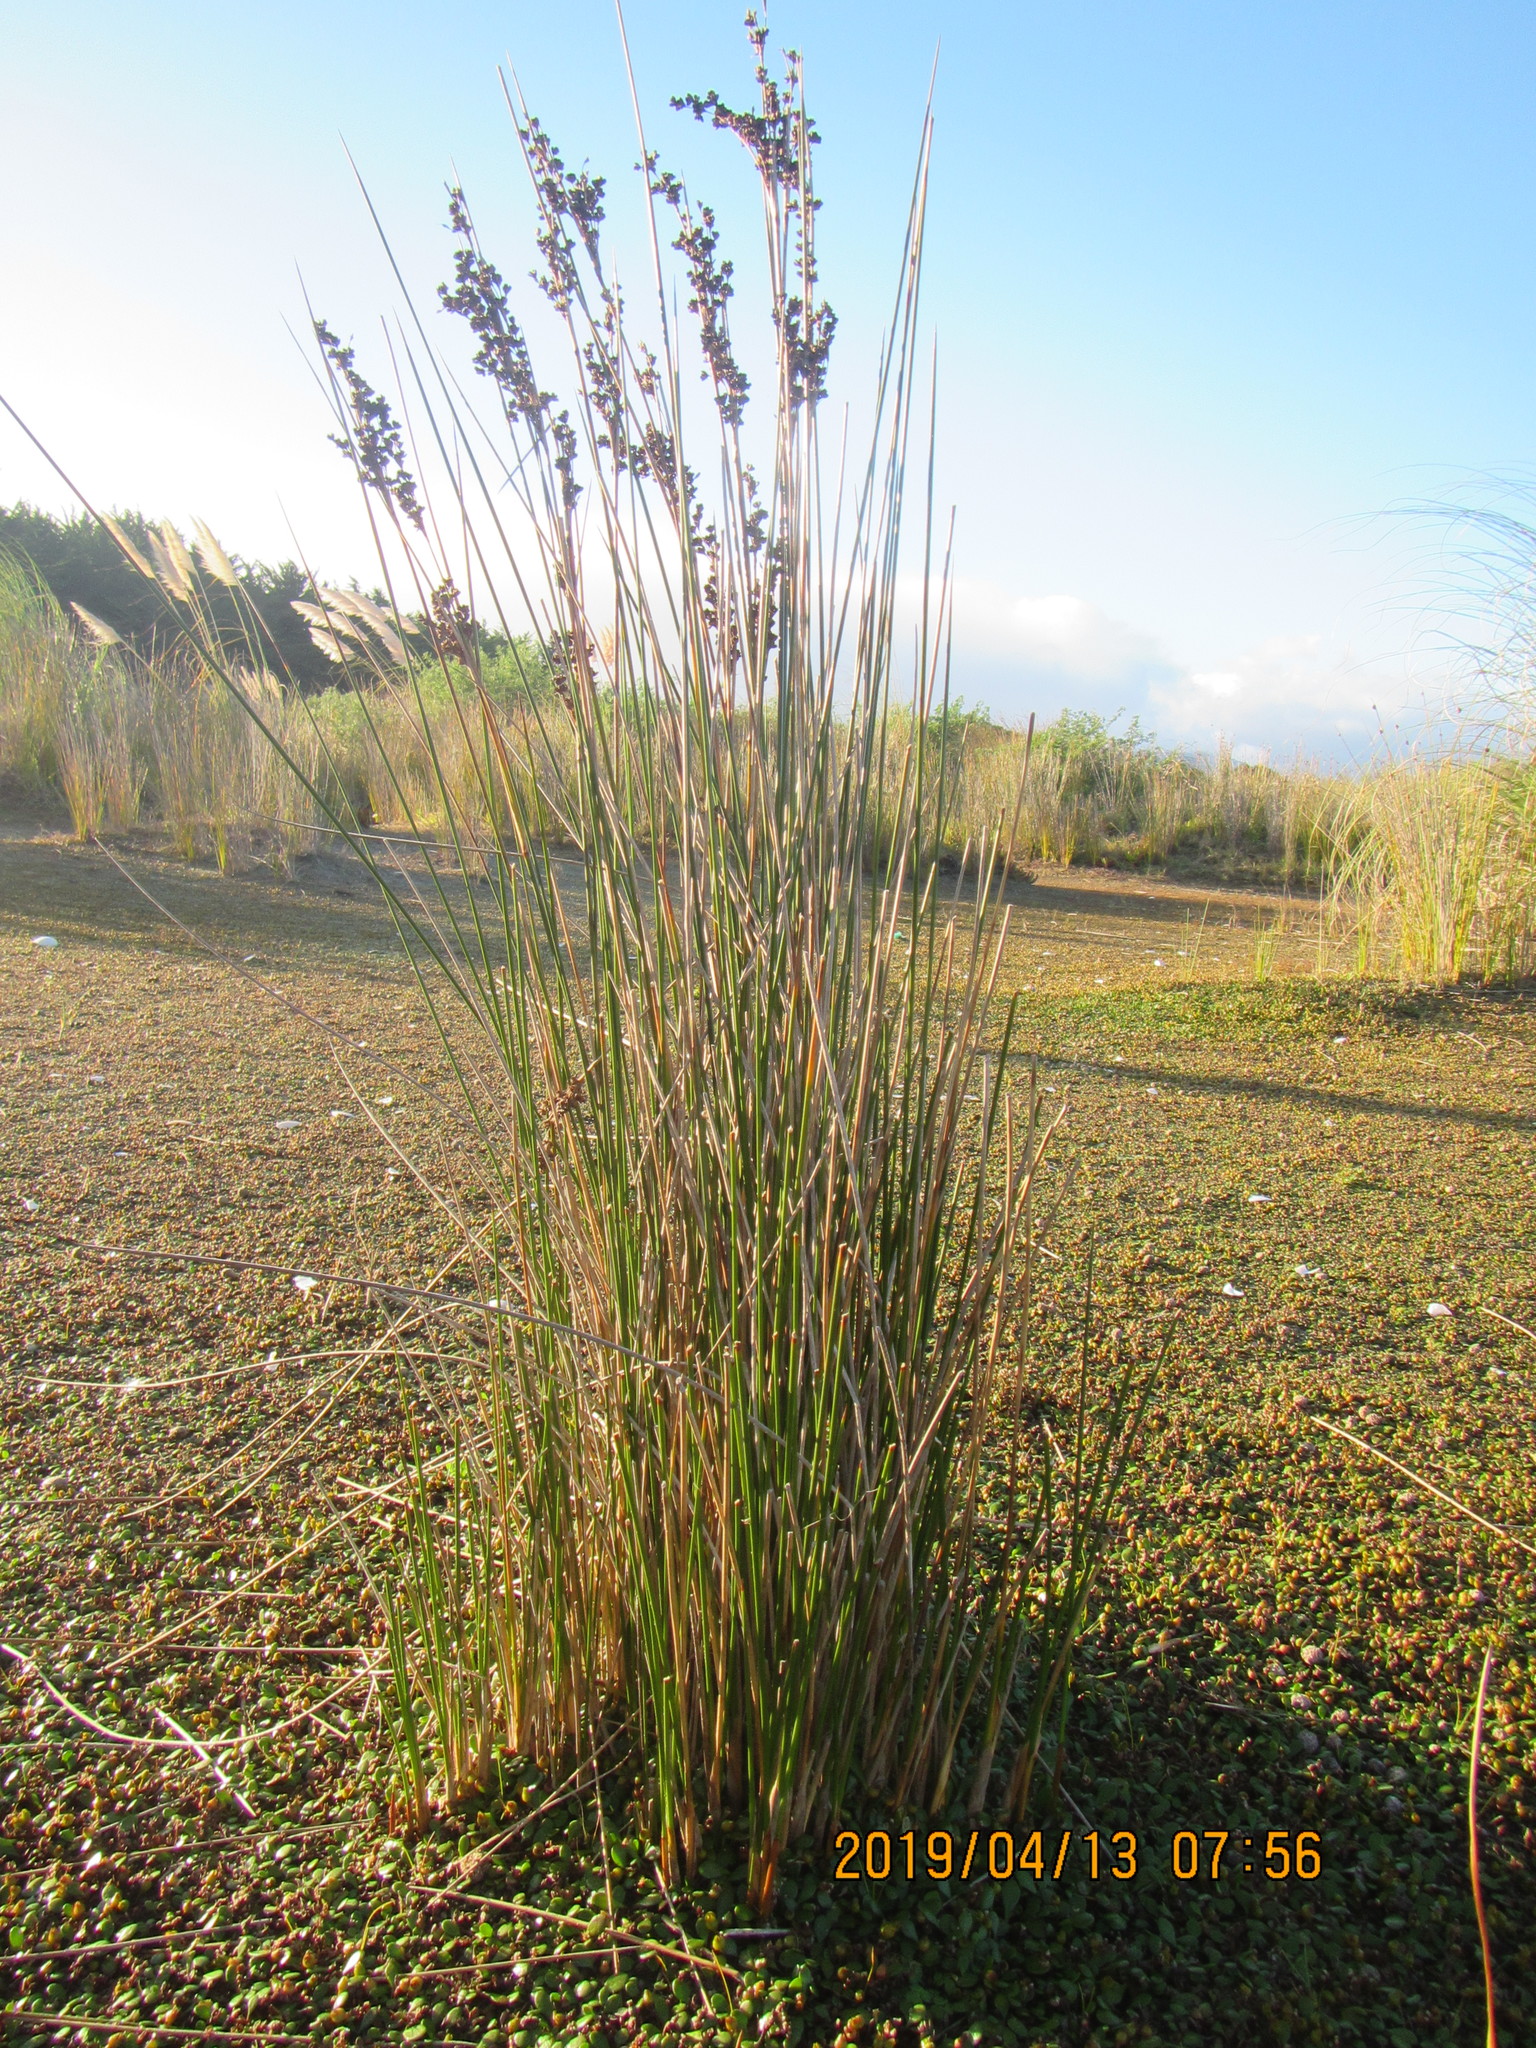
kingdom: Plantae
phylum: Tracheophyta
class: Liliopsida
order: Poales
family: Juncaceae
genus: Juncus
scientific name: Juncus kraussii
